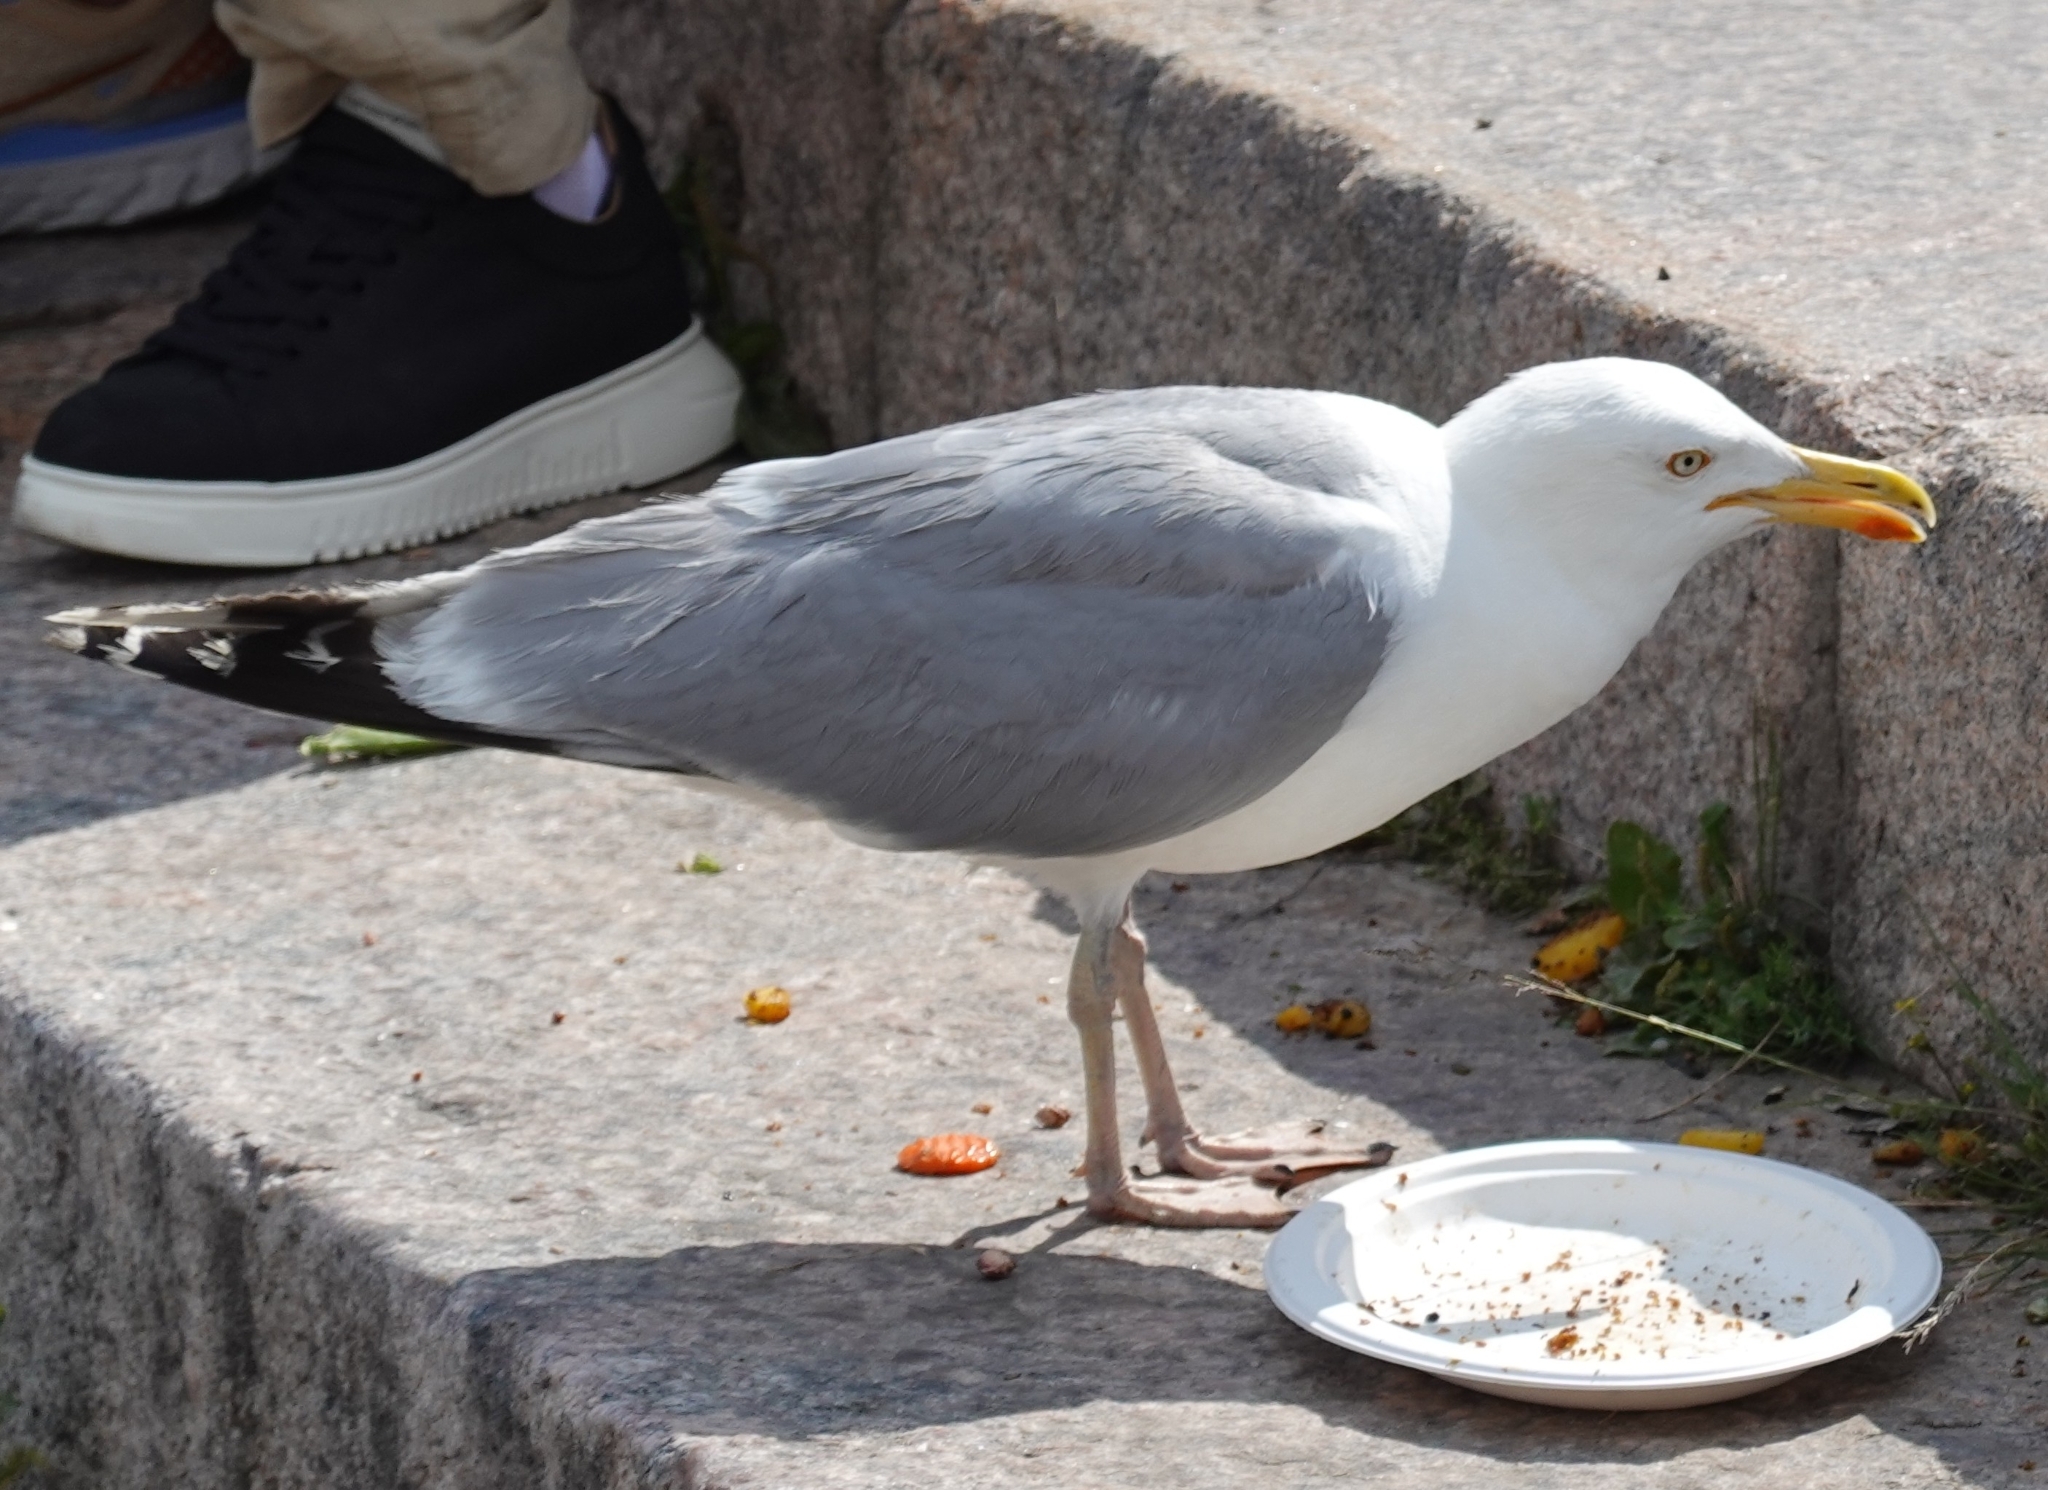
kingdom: Animalia
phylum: Chordata
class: Aves
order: Charadriiformes
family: Laridae
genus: Larus
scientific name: Larus argentatus
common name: Herring gull
